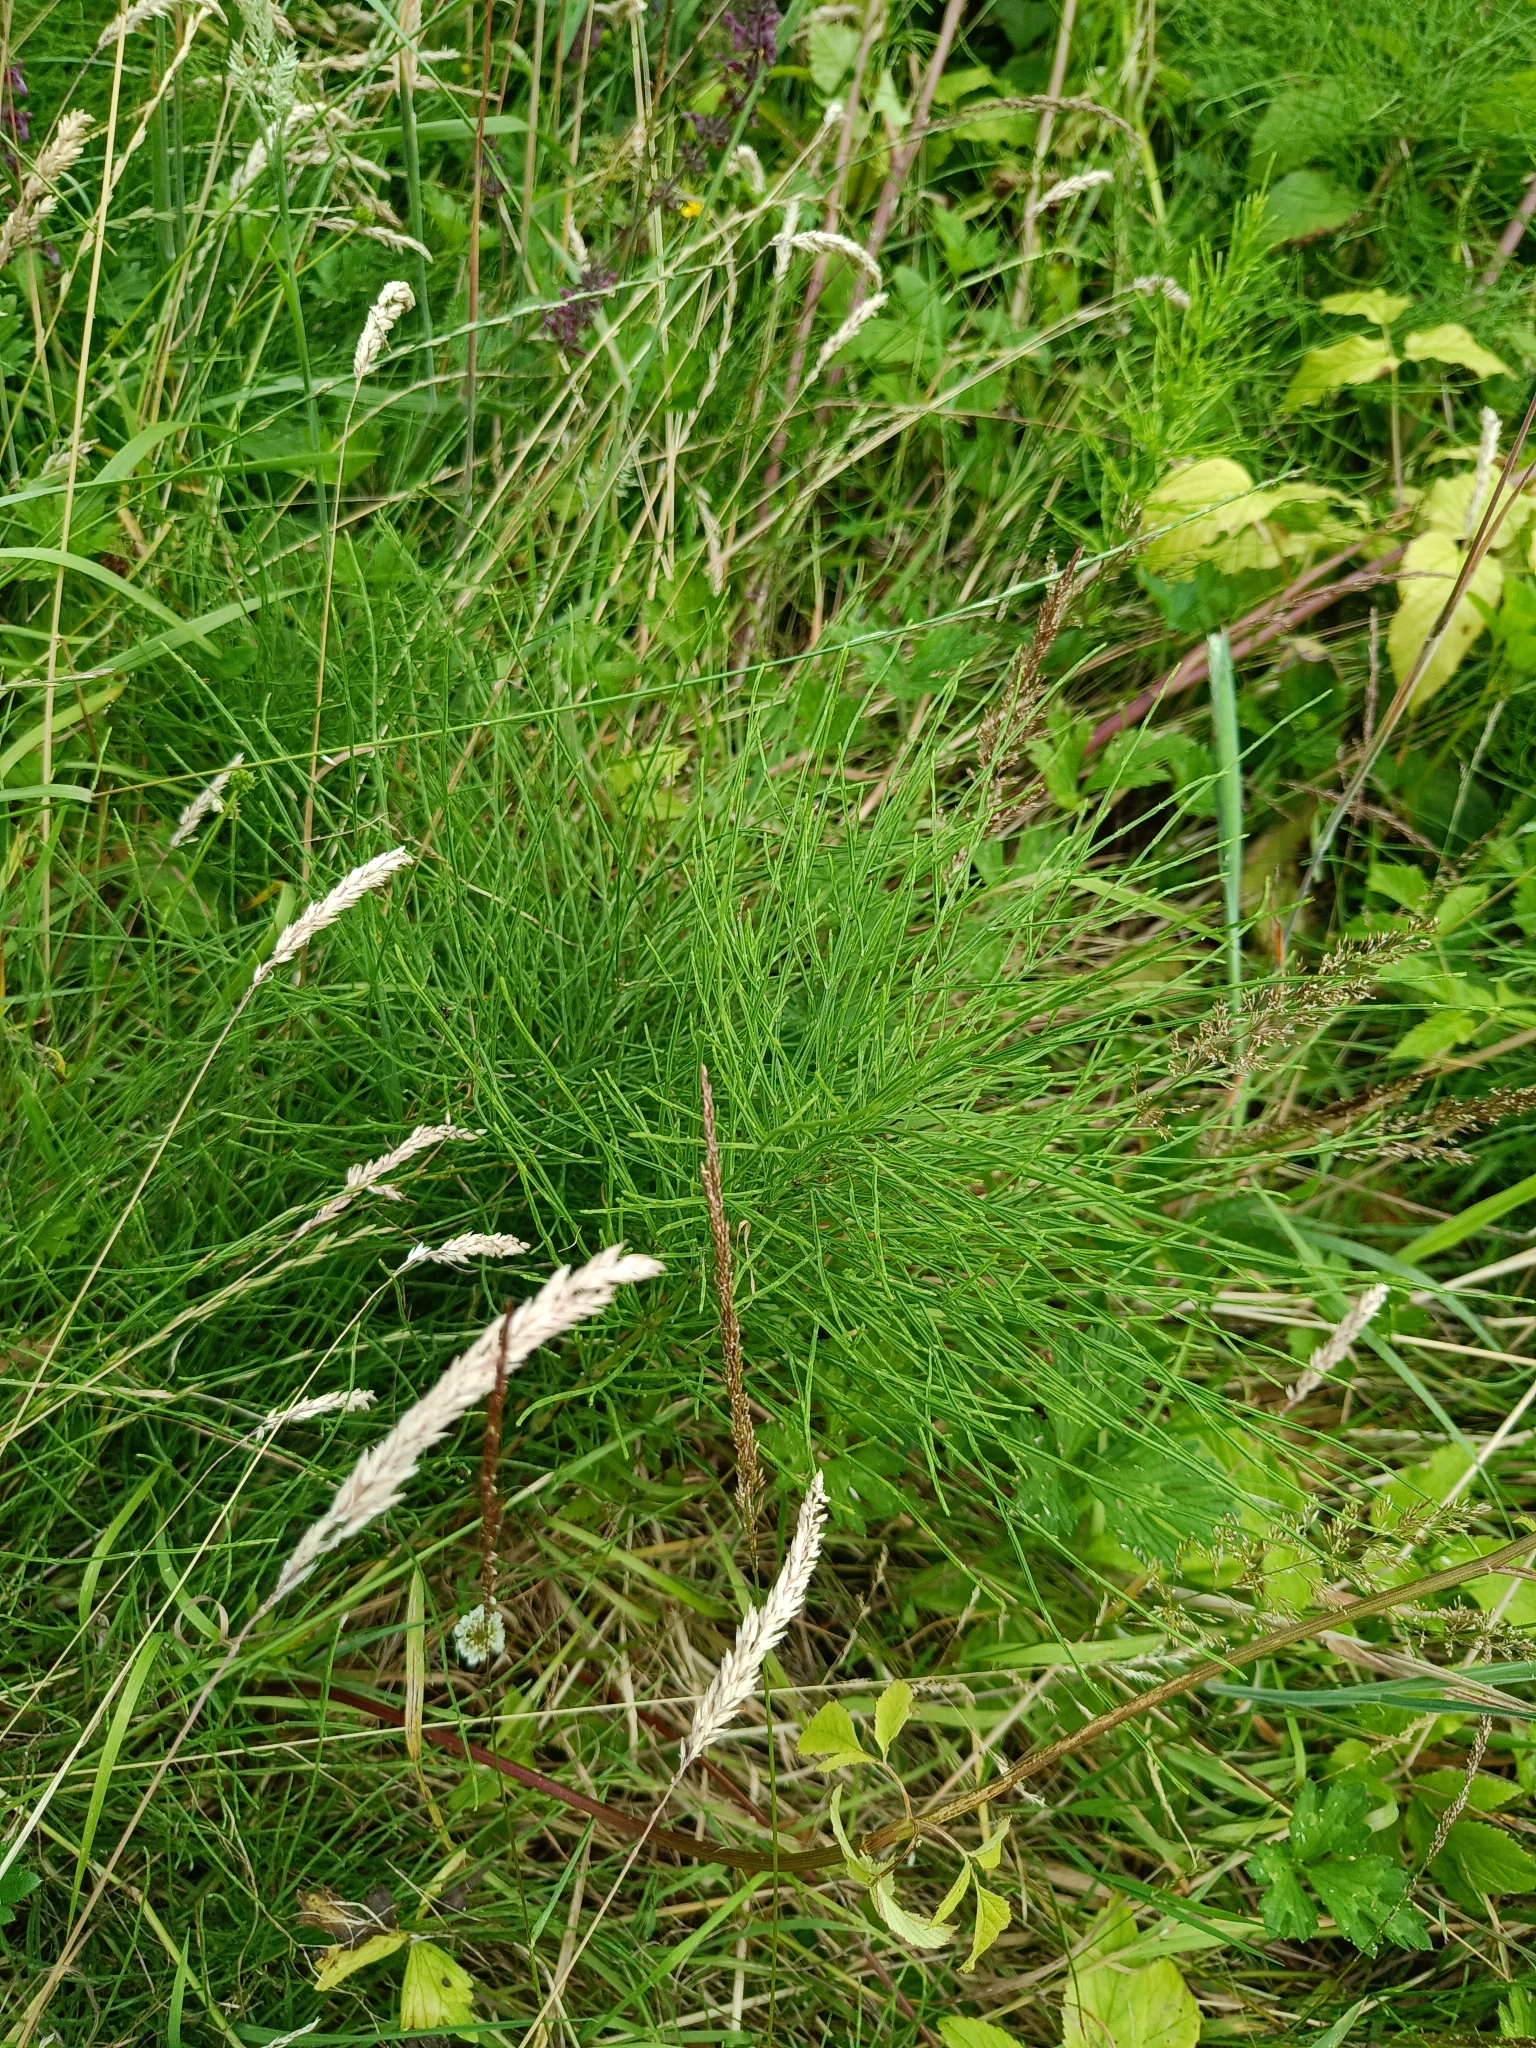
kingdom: Plantae
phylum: Tracheophyta
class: Polypodiopsida
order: Equisetales
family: Equisetaceae
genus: Equisetum
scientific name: Equisetum arvense
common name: Field horsetail
